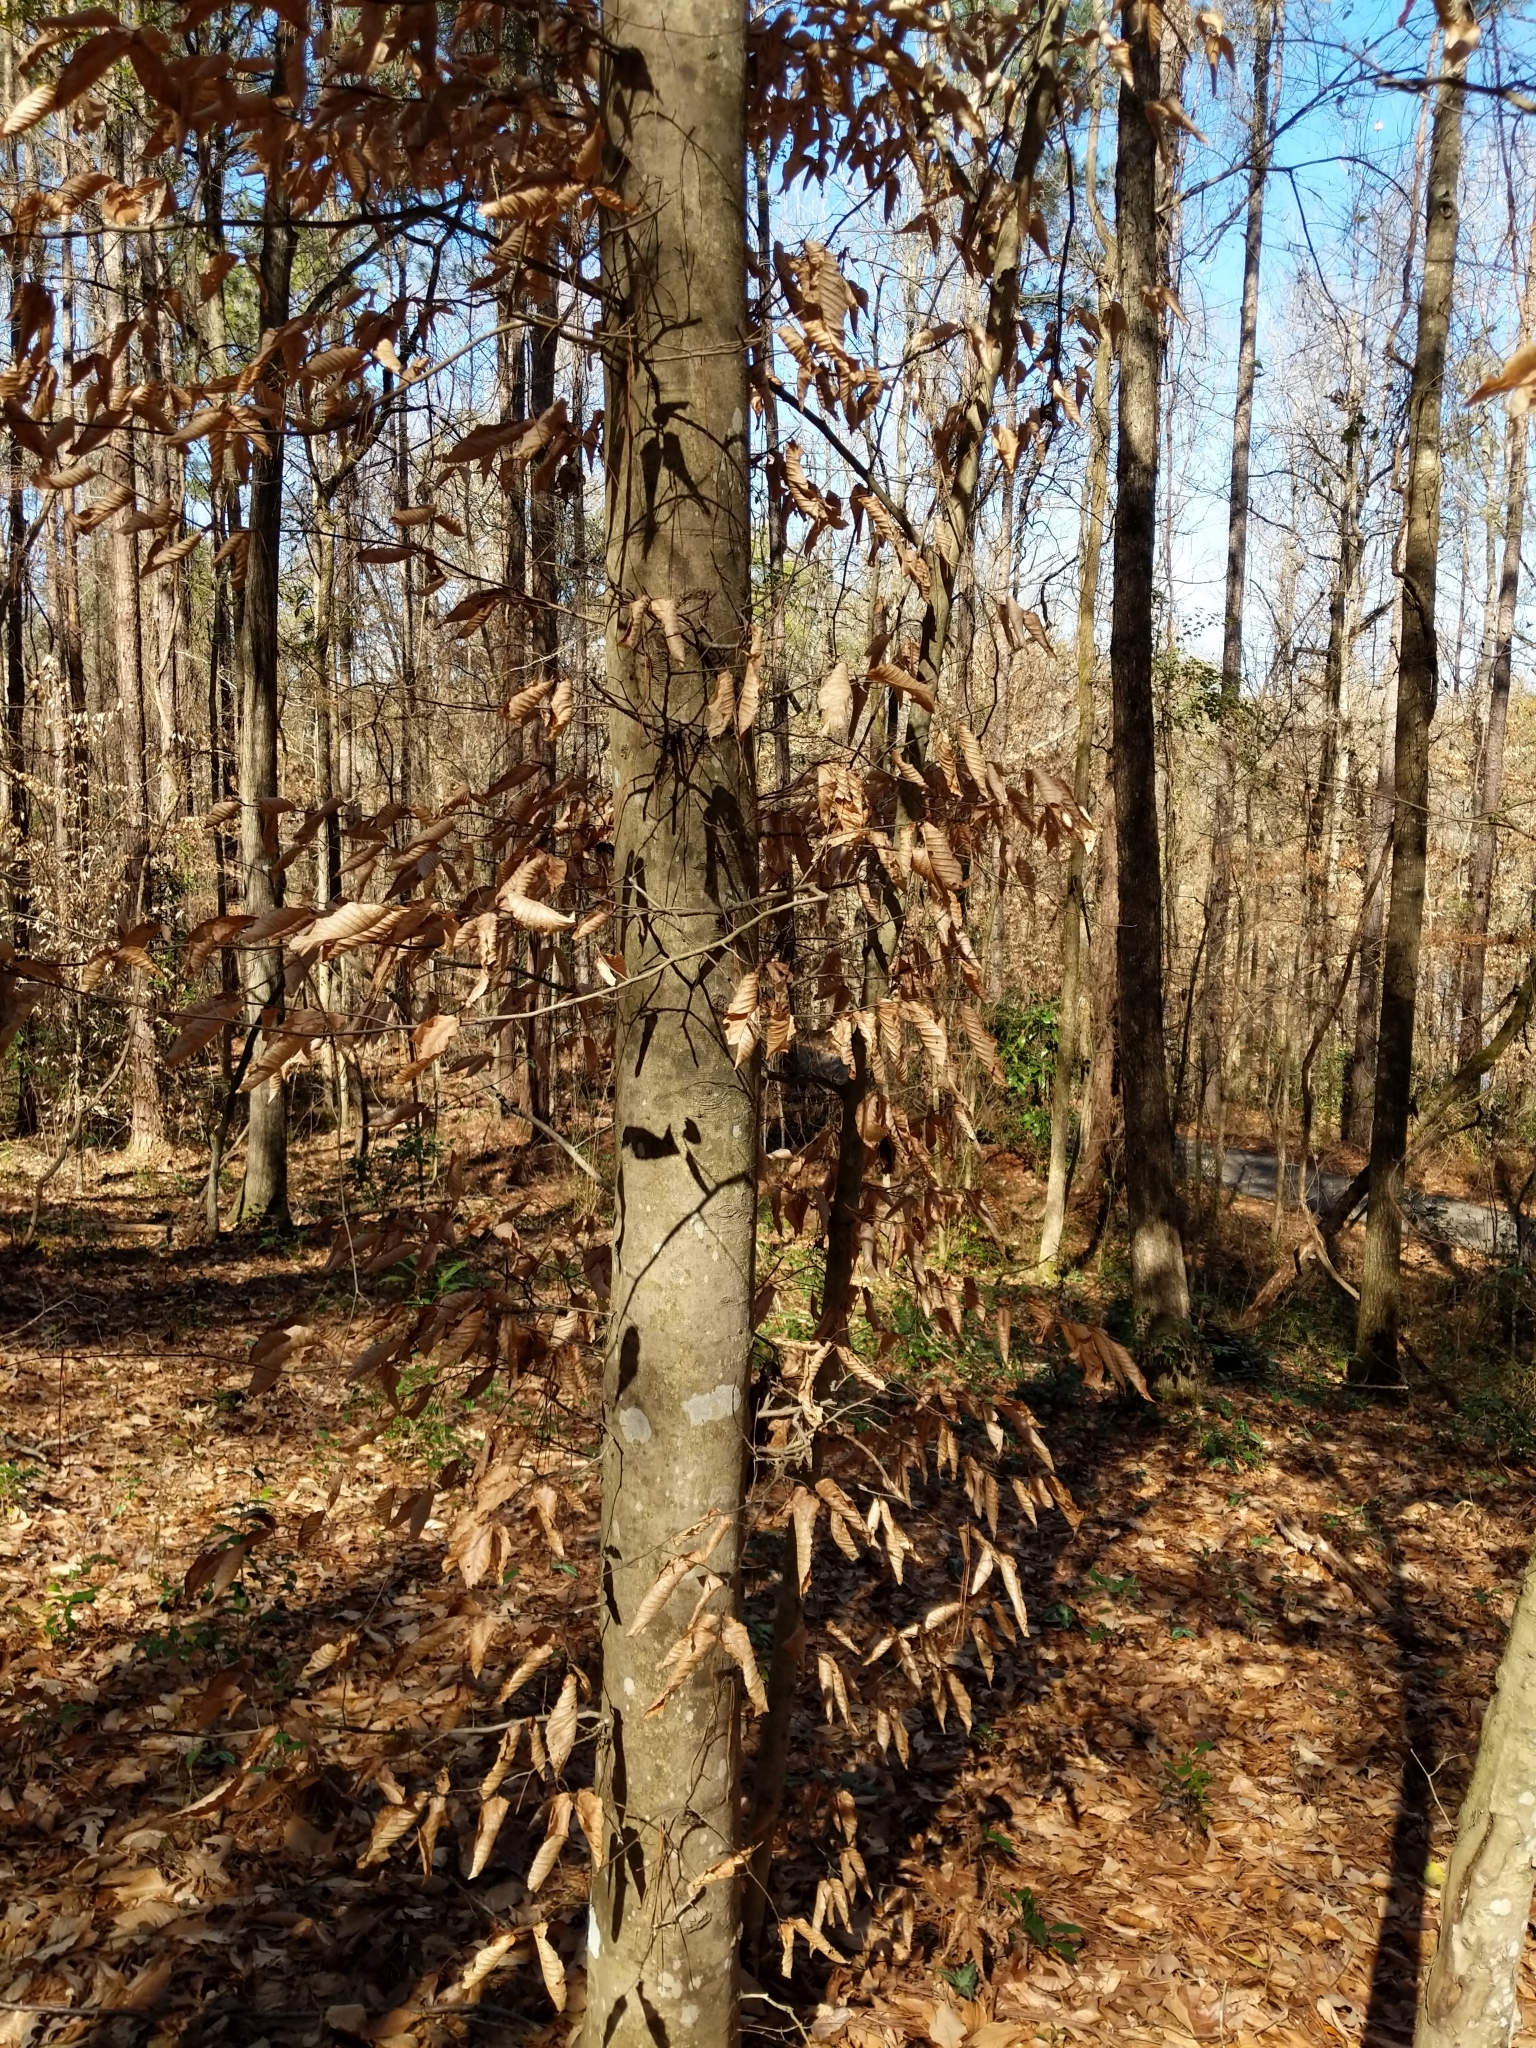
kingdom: Plantae
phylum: Tracheophyta
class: Magnoliopsida
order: Fagales
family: Fagaceae
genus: Fagus
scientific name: Fagus grandifolia
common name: American beech
